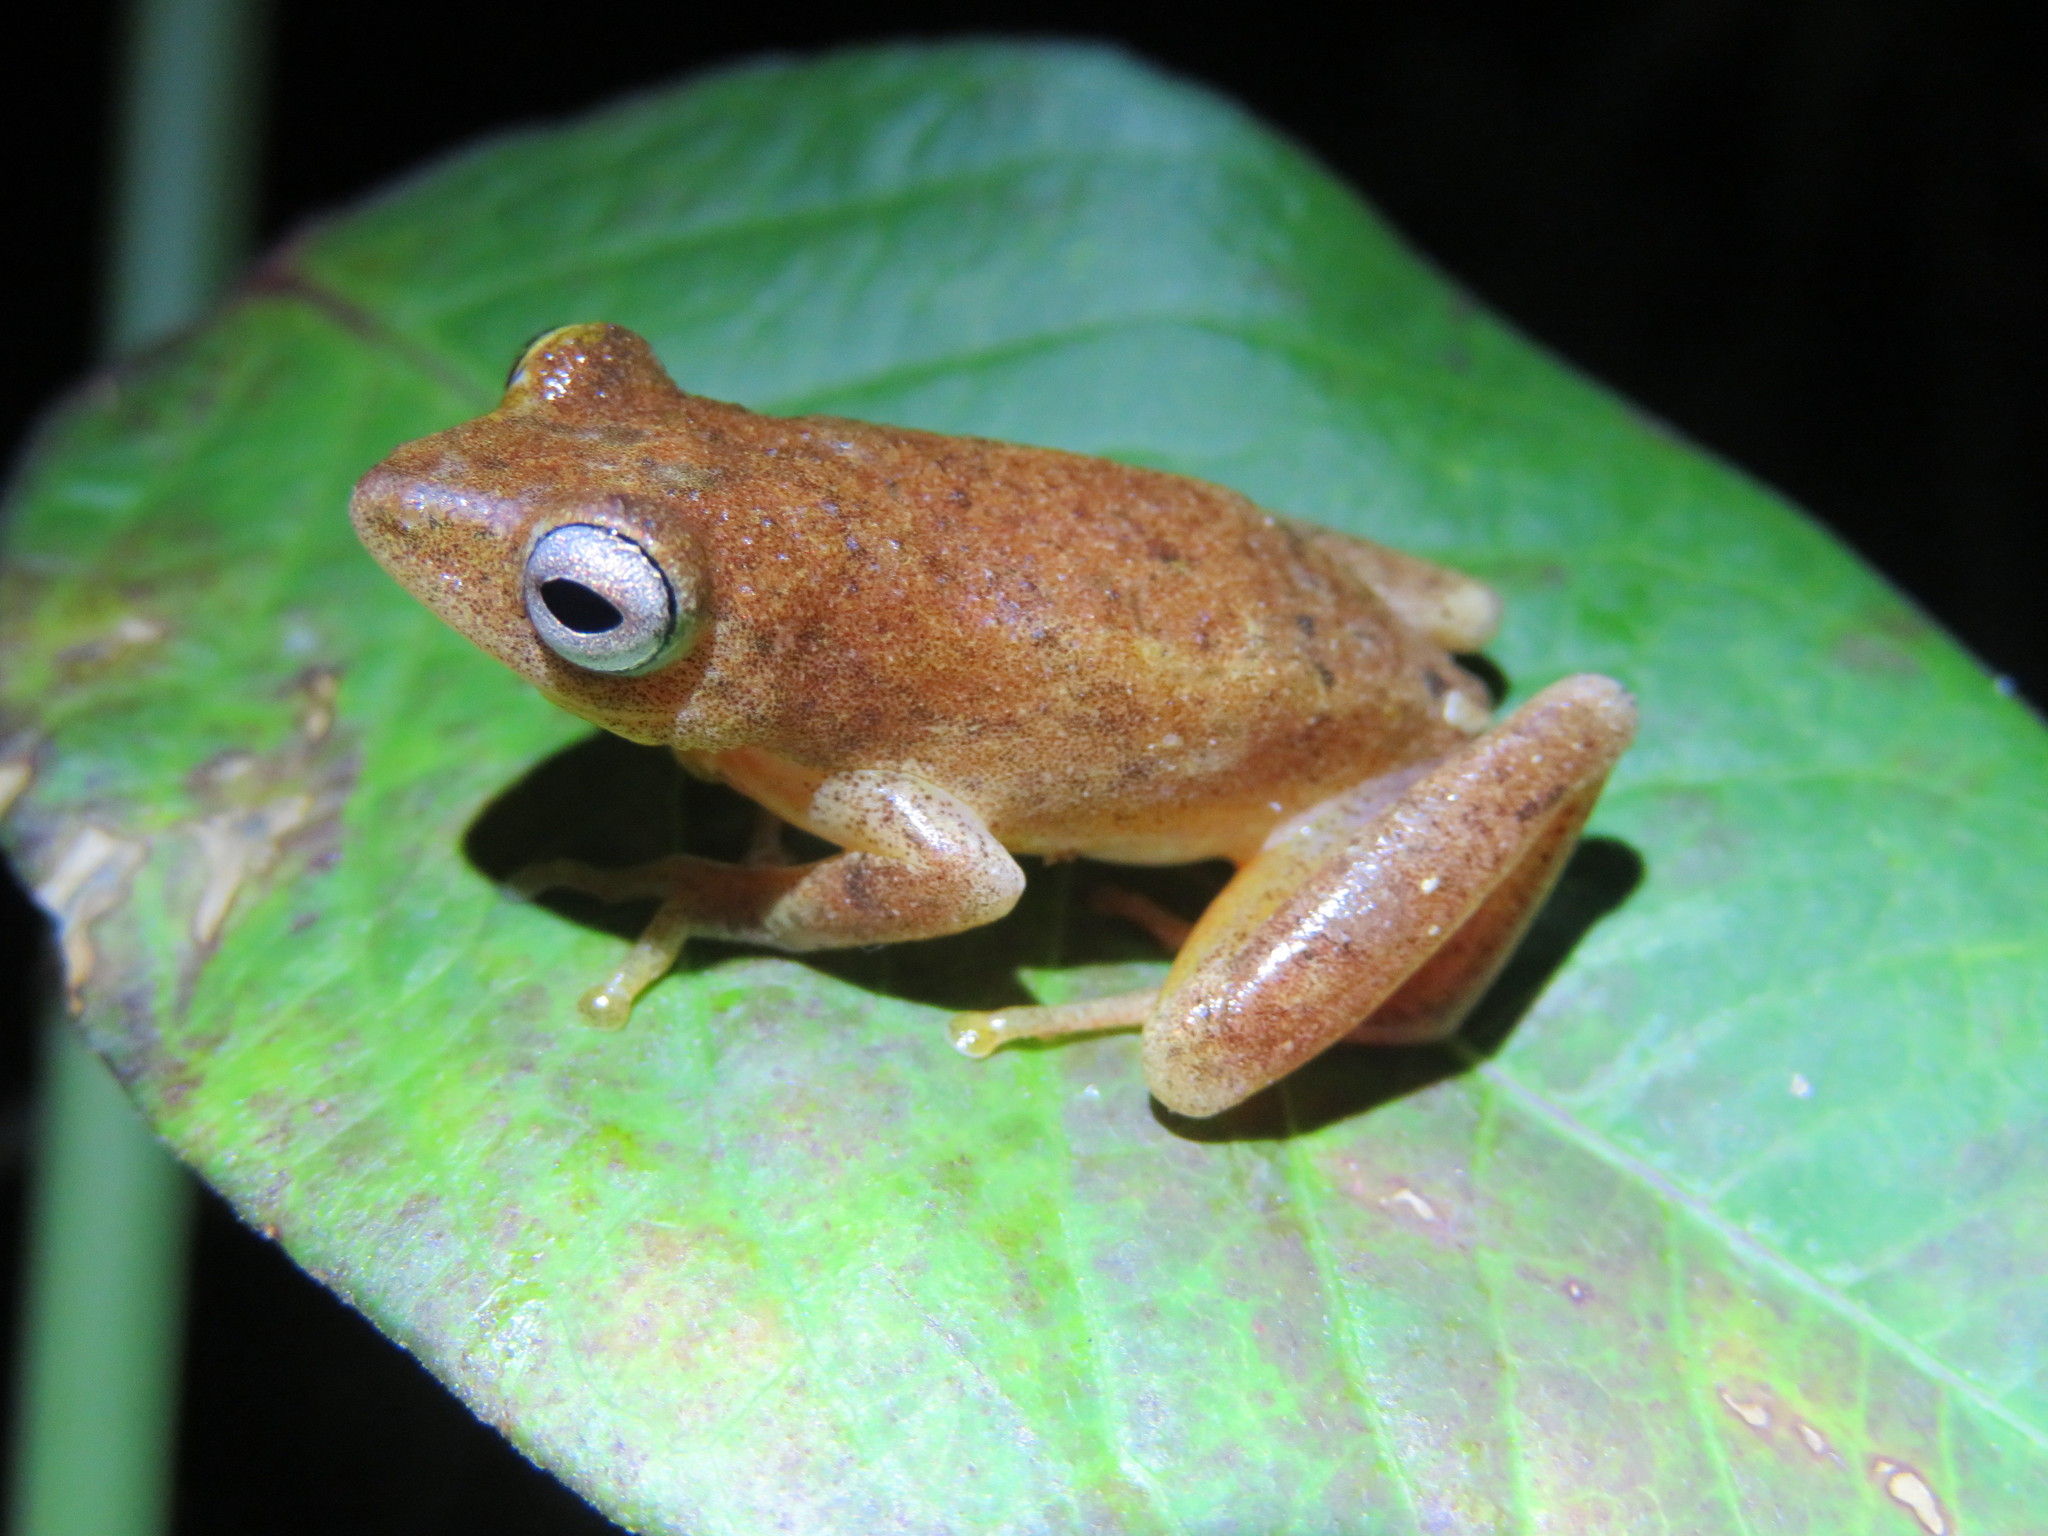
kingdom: Animalia
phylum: Chordata
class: Amphibia
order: Anura
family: Hyperoliidae
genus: Hyperolius
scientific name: Hyperolius tuberilinguis
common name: Tinker reed frog
